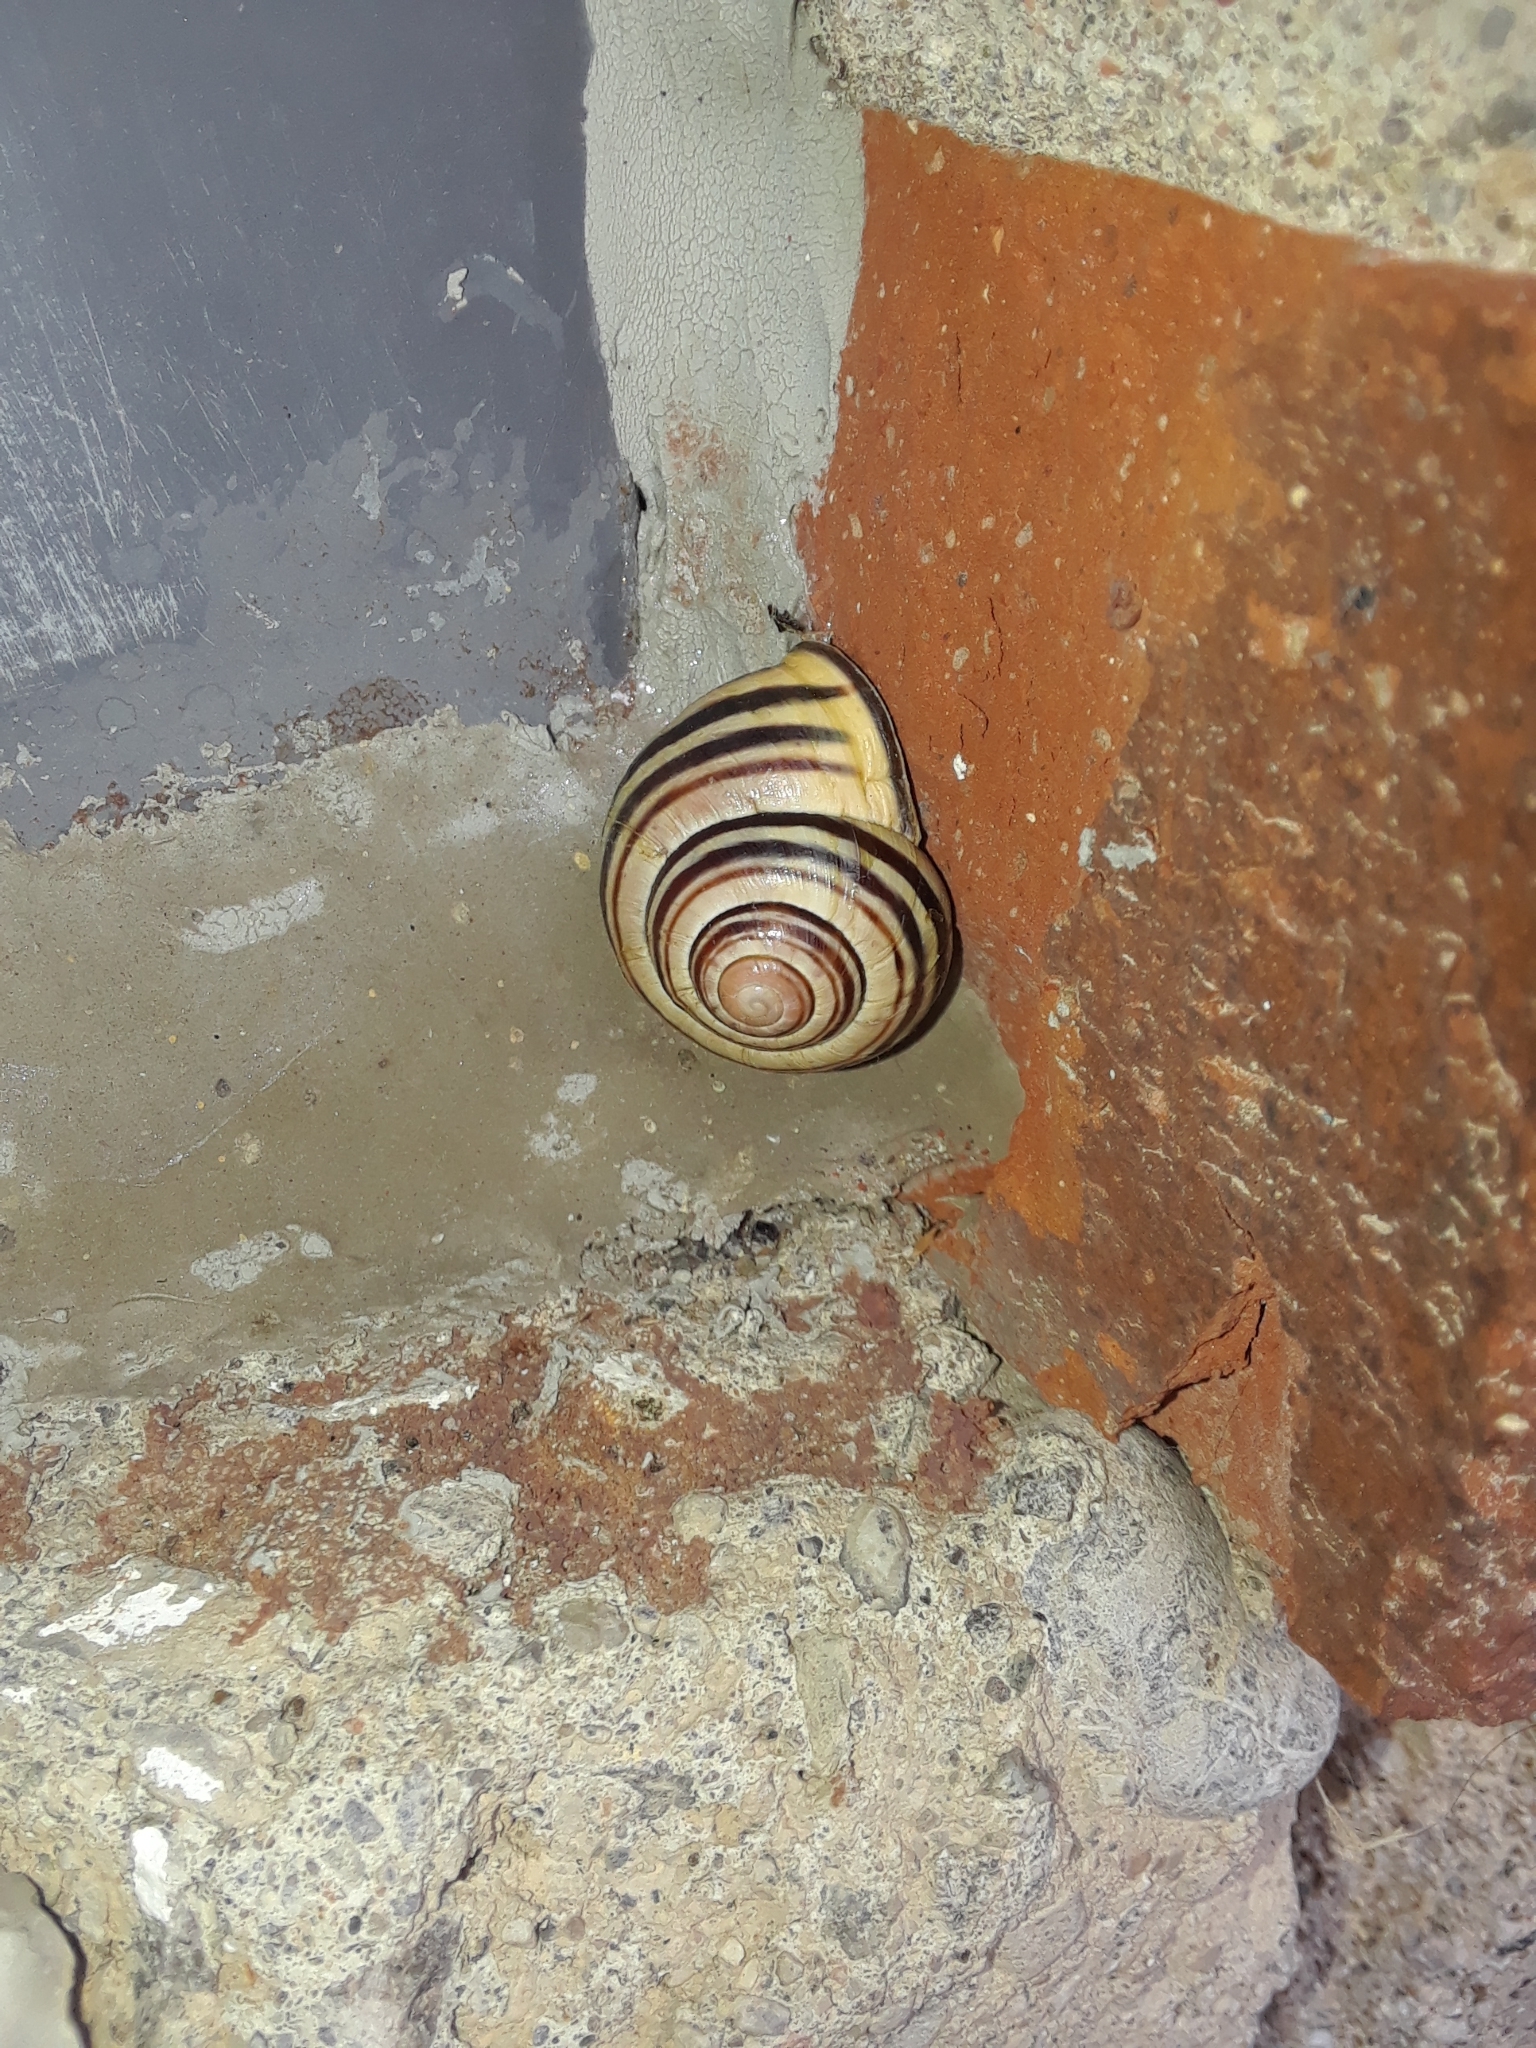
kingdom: Animalia
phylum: Mollusca
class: Gastropoda
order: Stylommatophora
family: Helicidae
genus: Cepaea
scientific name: Cepaea nemoralis
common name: Grovesnail
